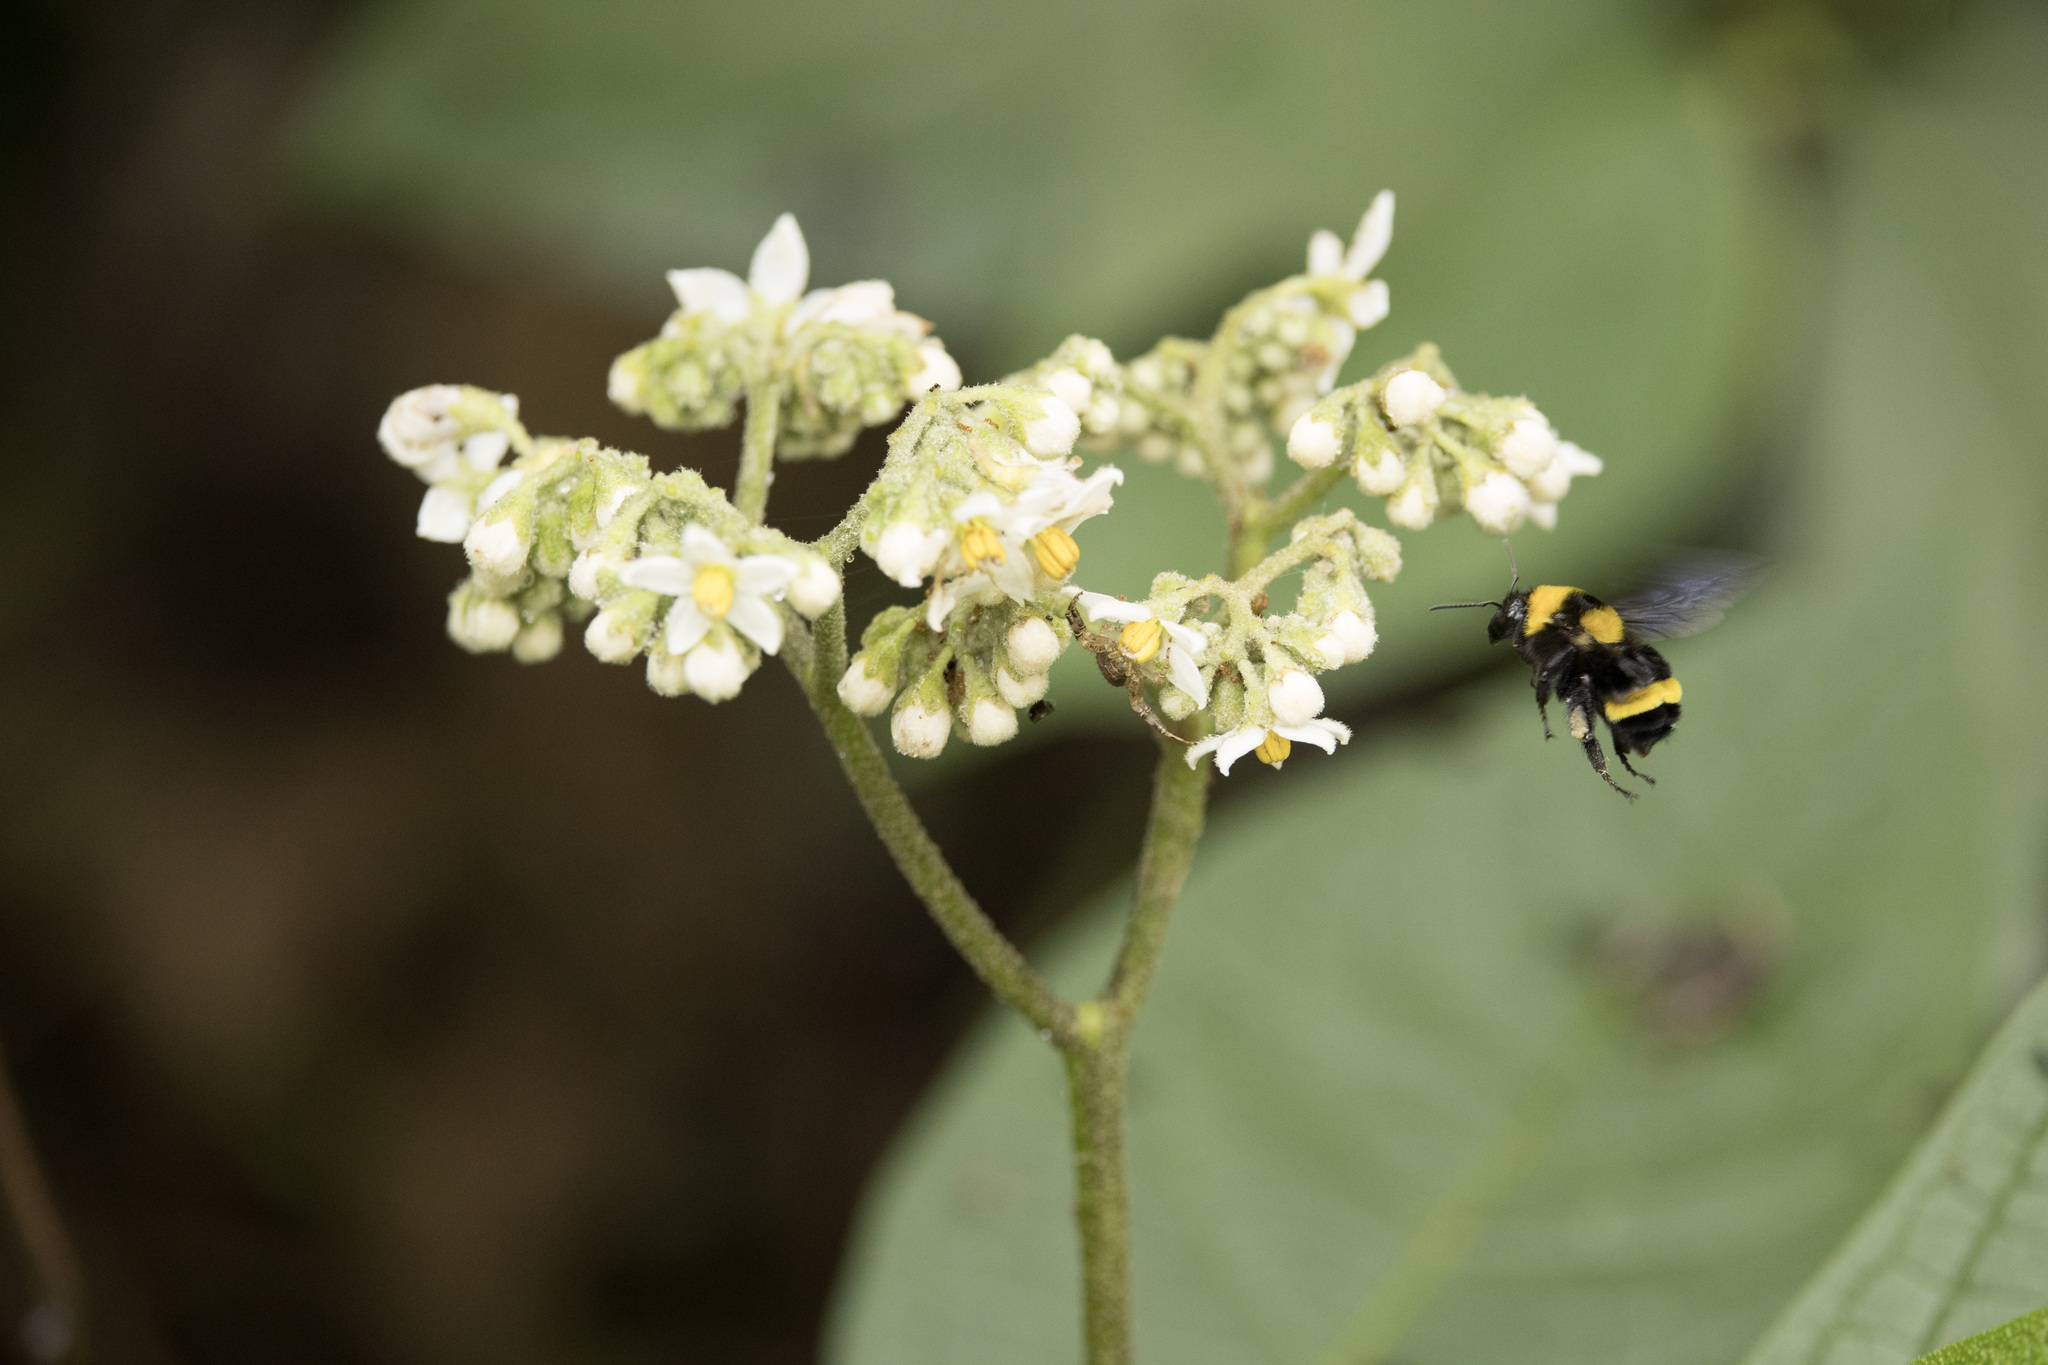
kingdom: Animalia
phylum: Arthropoda
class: Insecta
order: Hymenoptera
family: Apidae
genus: Bombus
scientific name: Bombus transversalis
